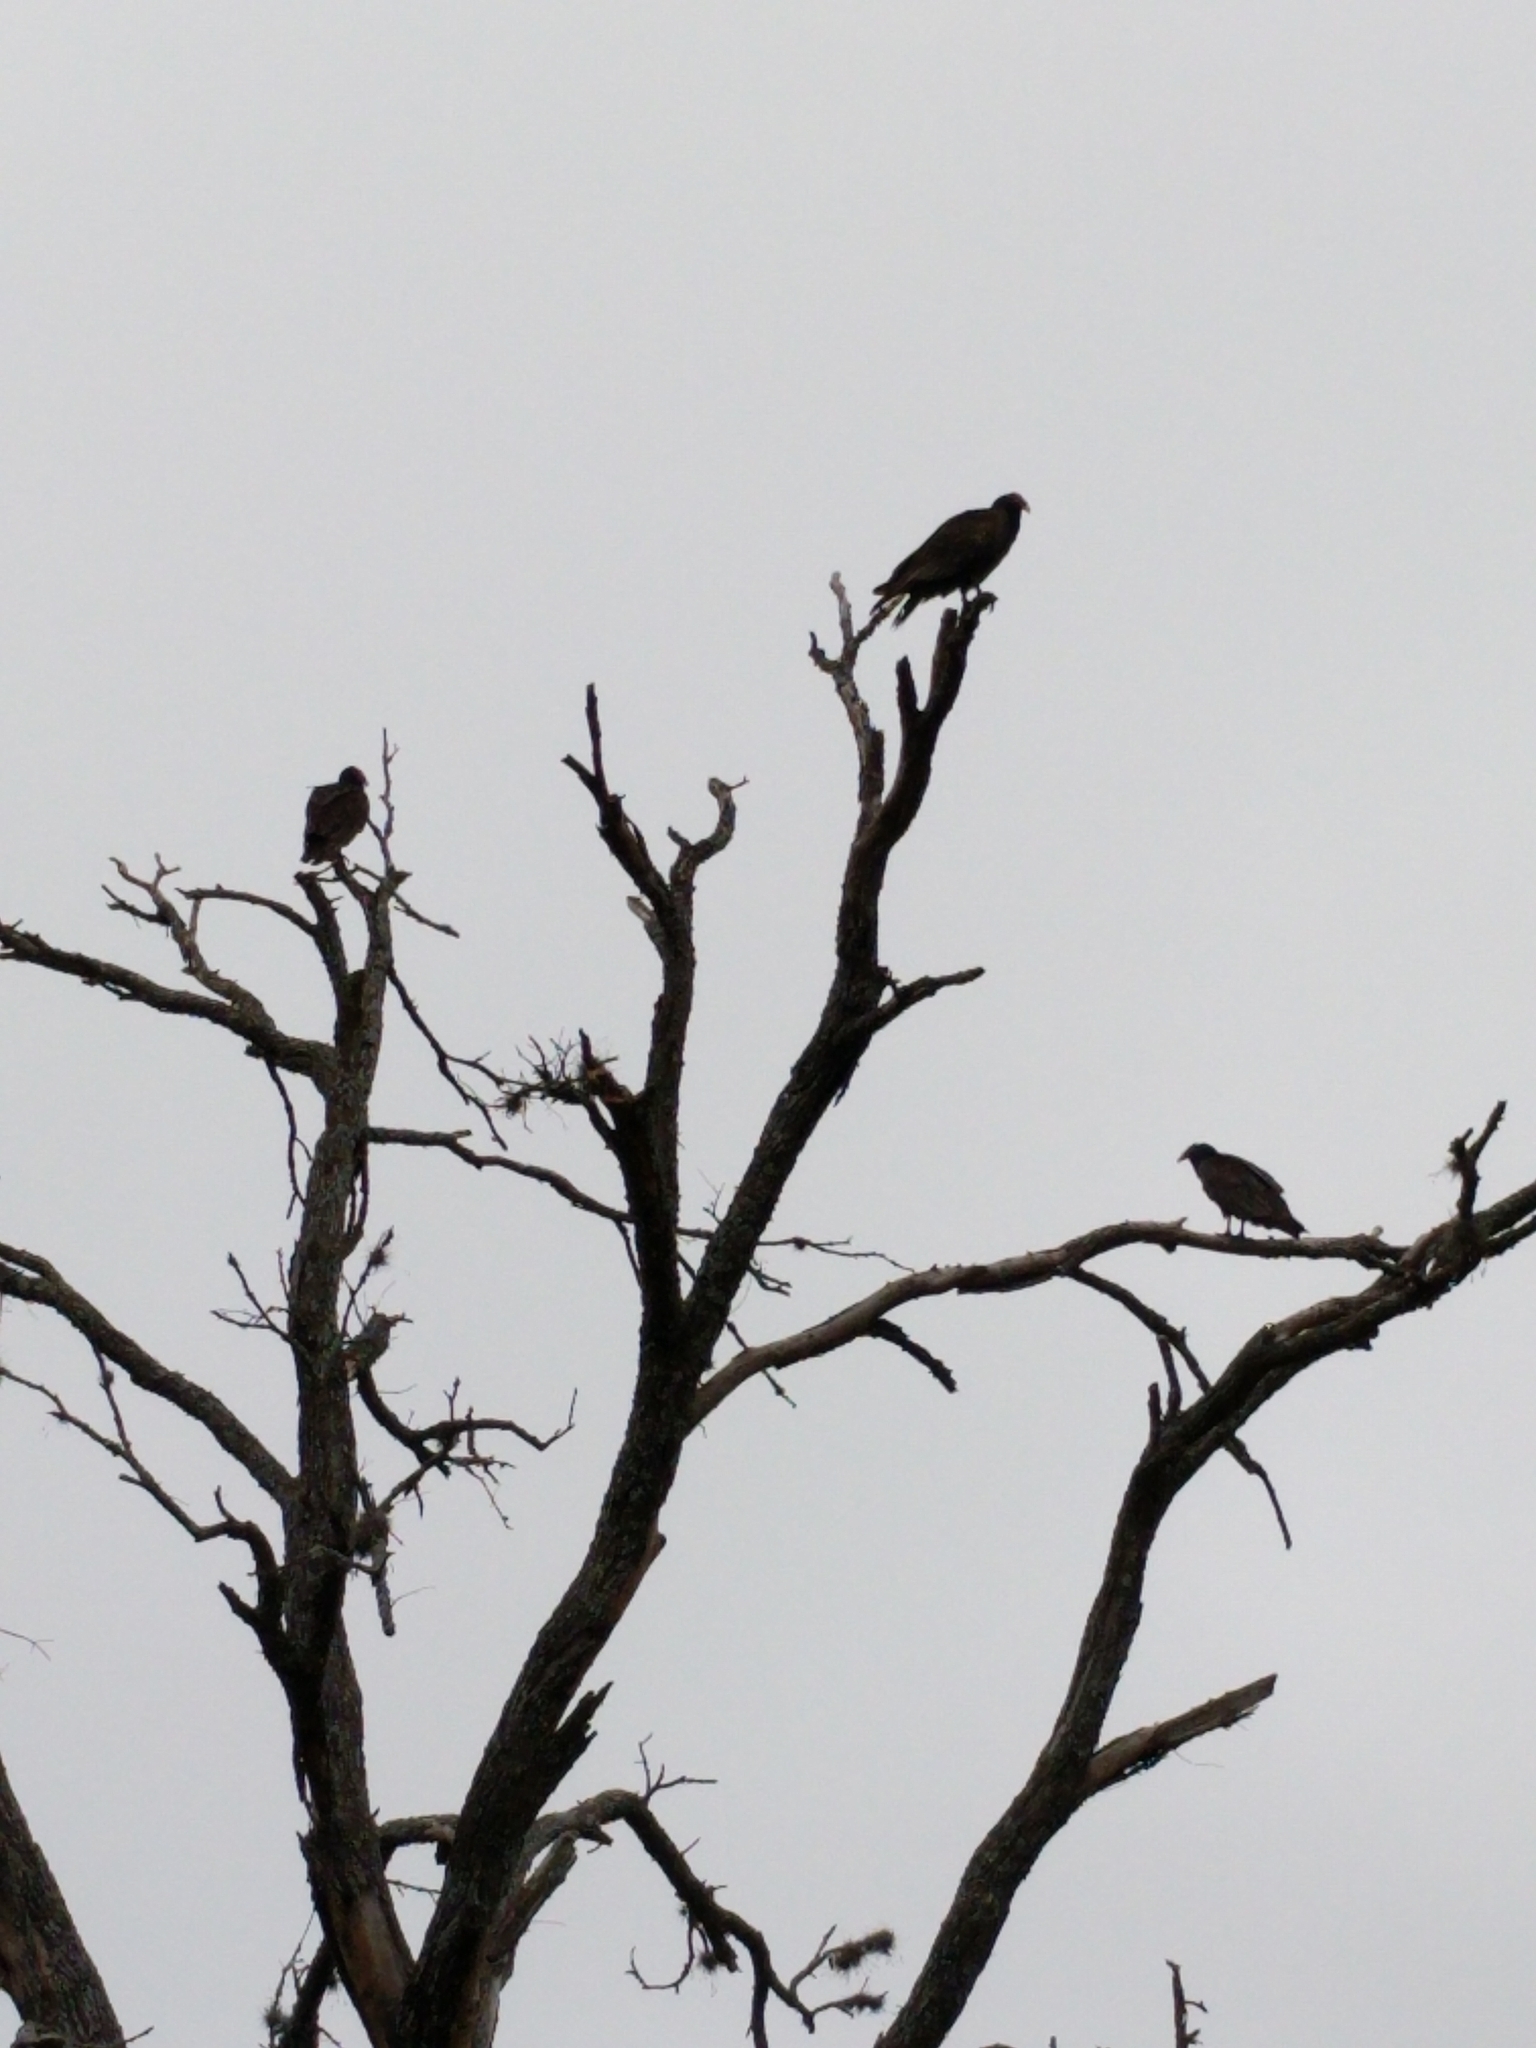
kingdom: Animalia
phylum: Chordata
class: Aves
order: Accipitriformes
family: Cathartidae
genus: Cathartes
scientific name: Cathartes aura
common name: Turkey vulture
